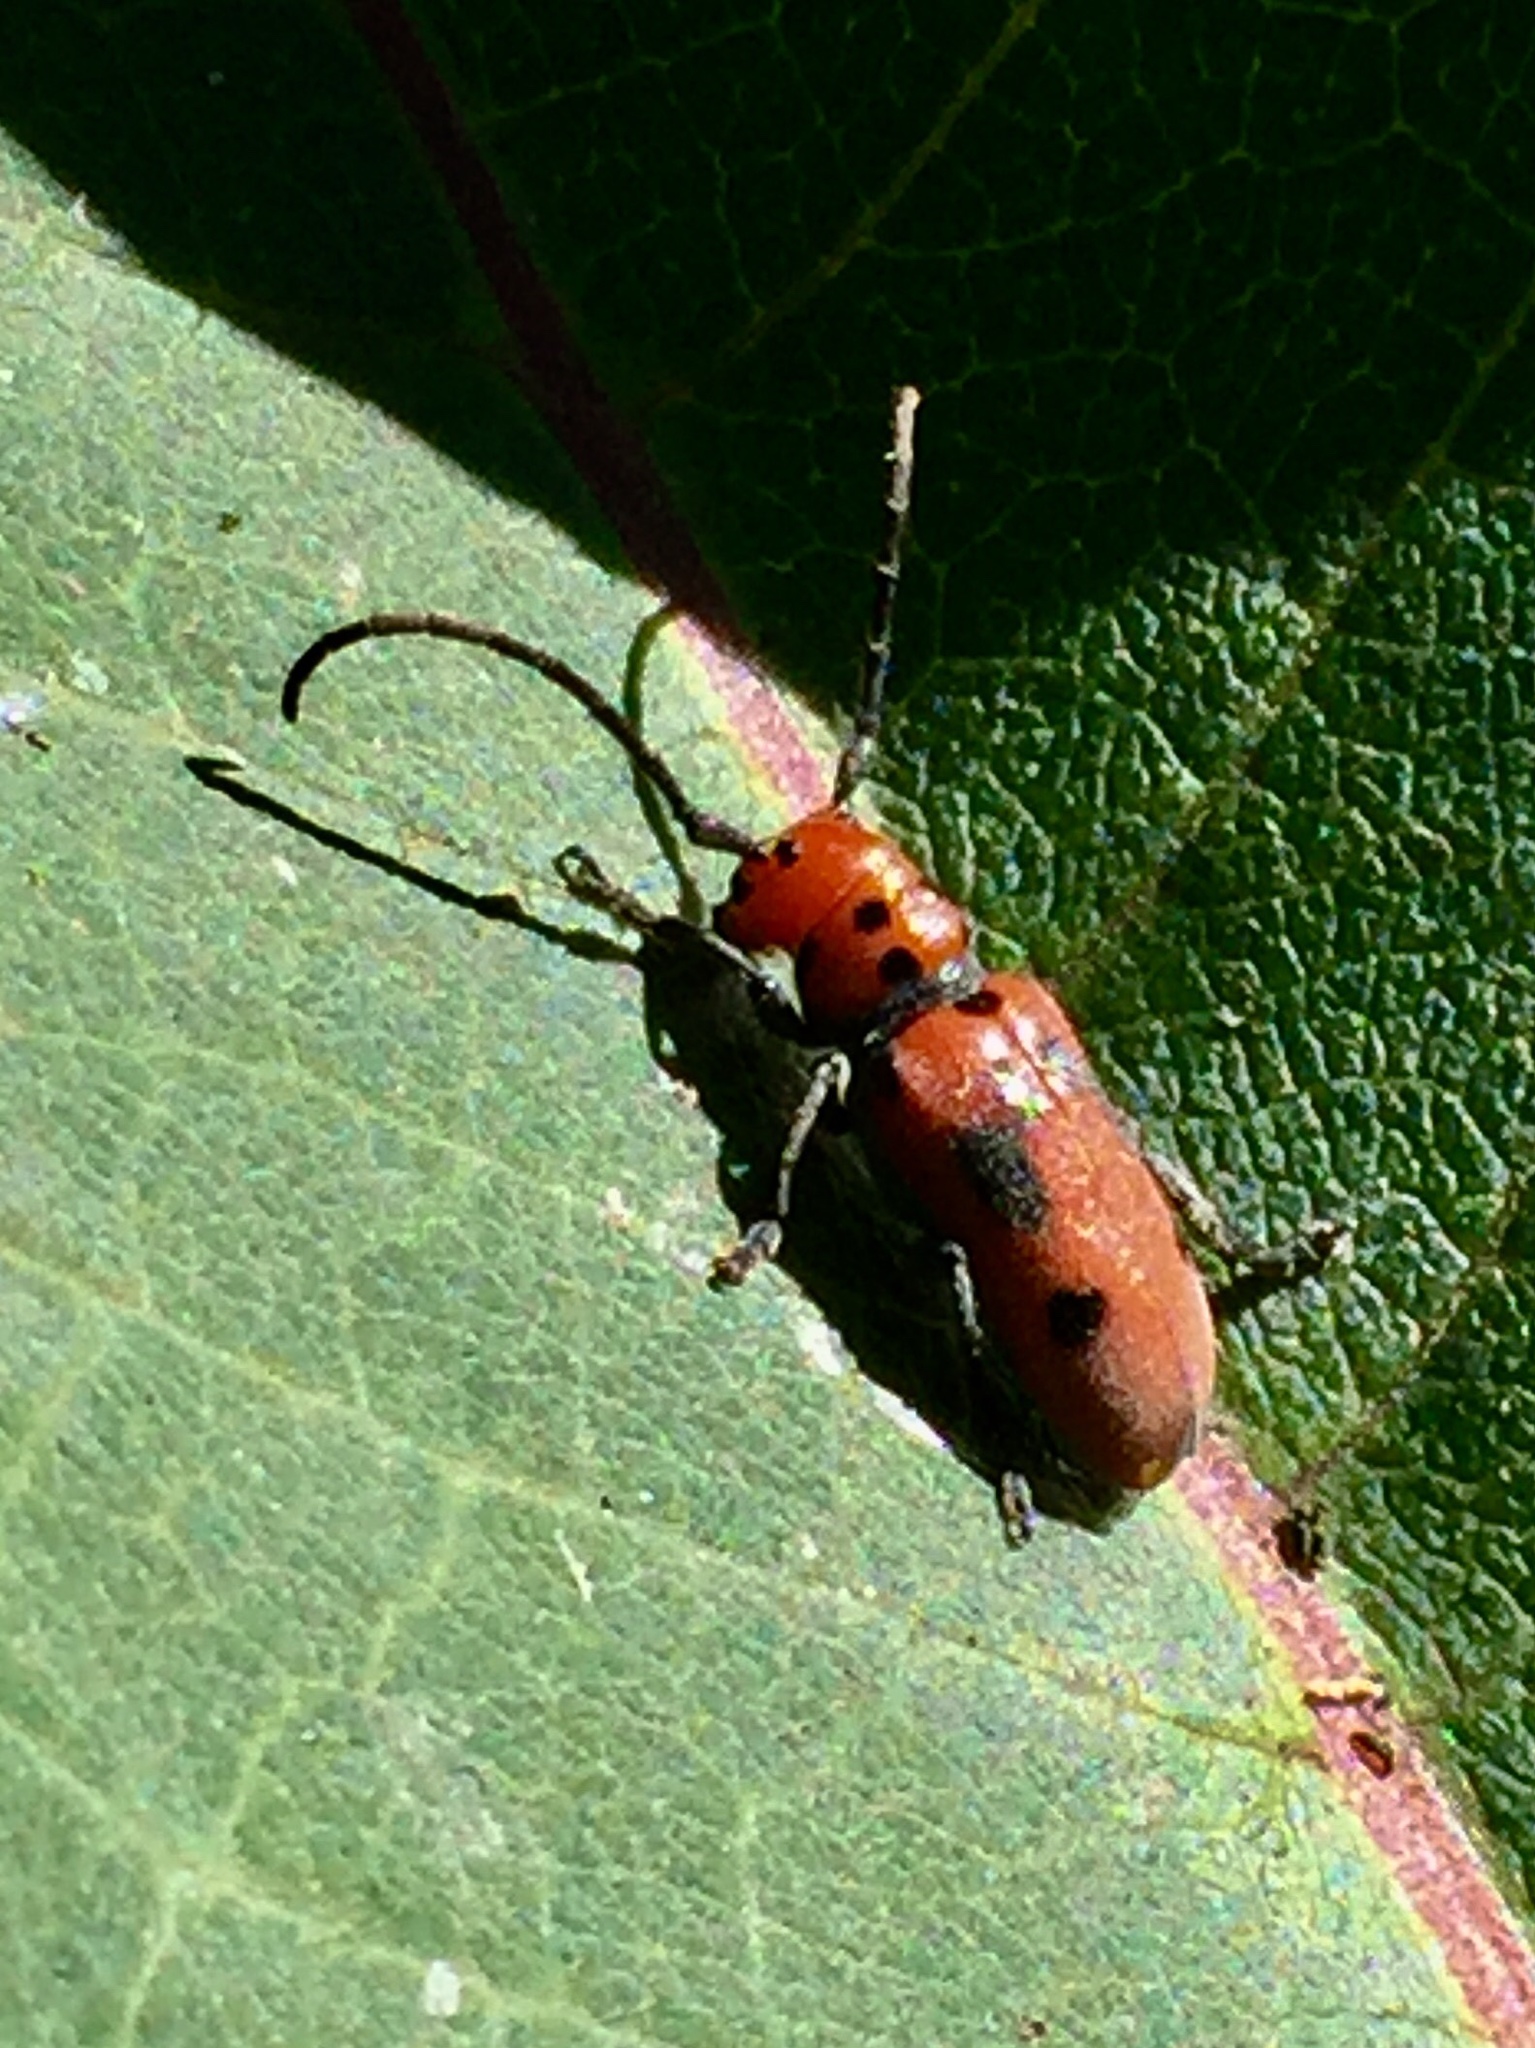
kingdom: Animalia
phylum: Arthropoda
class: Insecta
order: Coleoptera
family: Cerambycidae
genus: Tetraopes
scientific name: Tetraopes tetrophthalmus
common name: Red milkweed beetle
